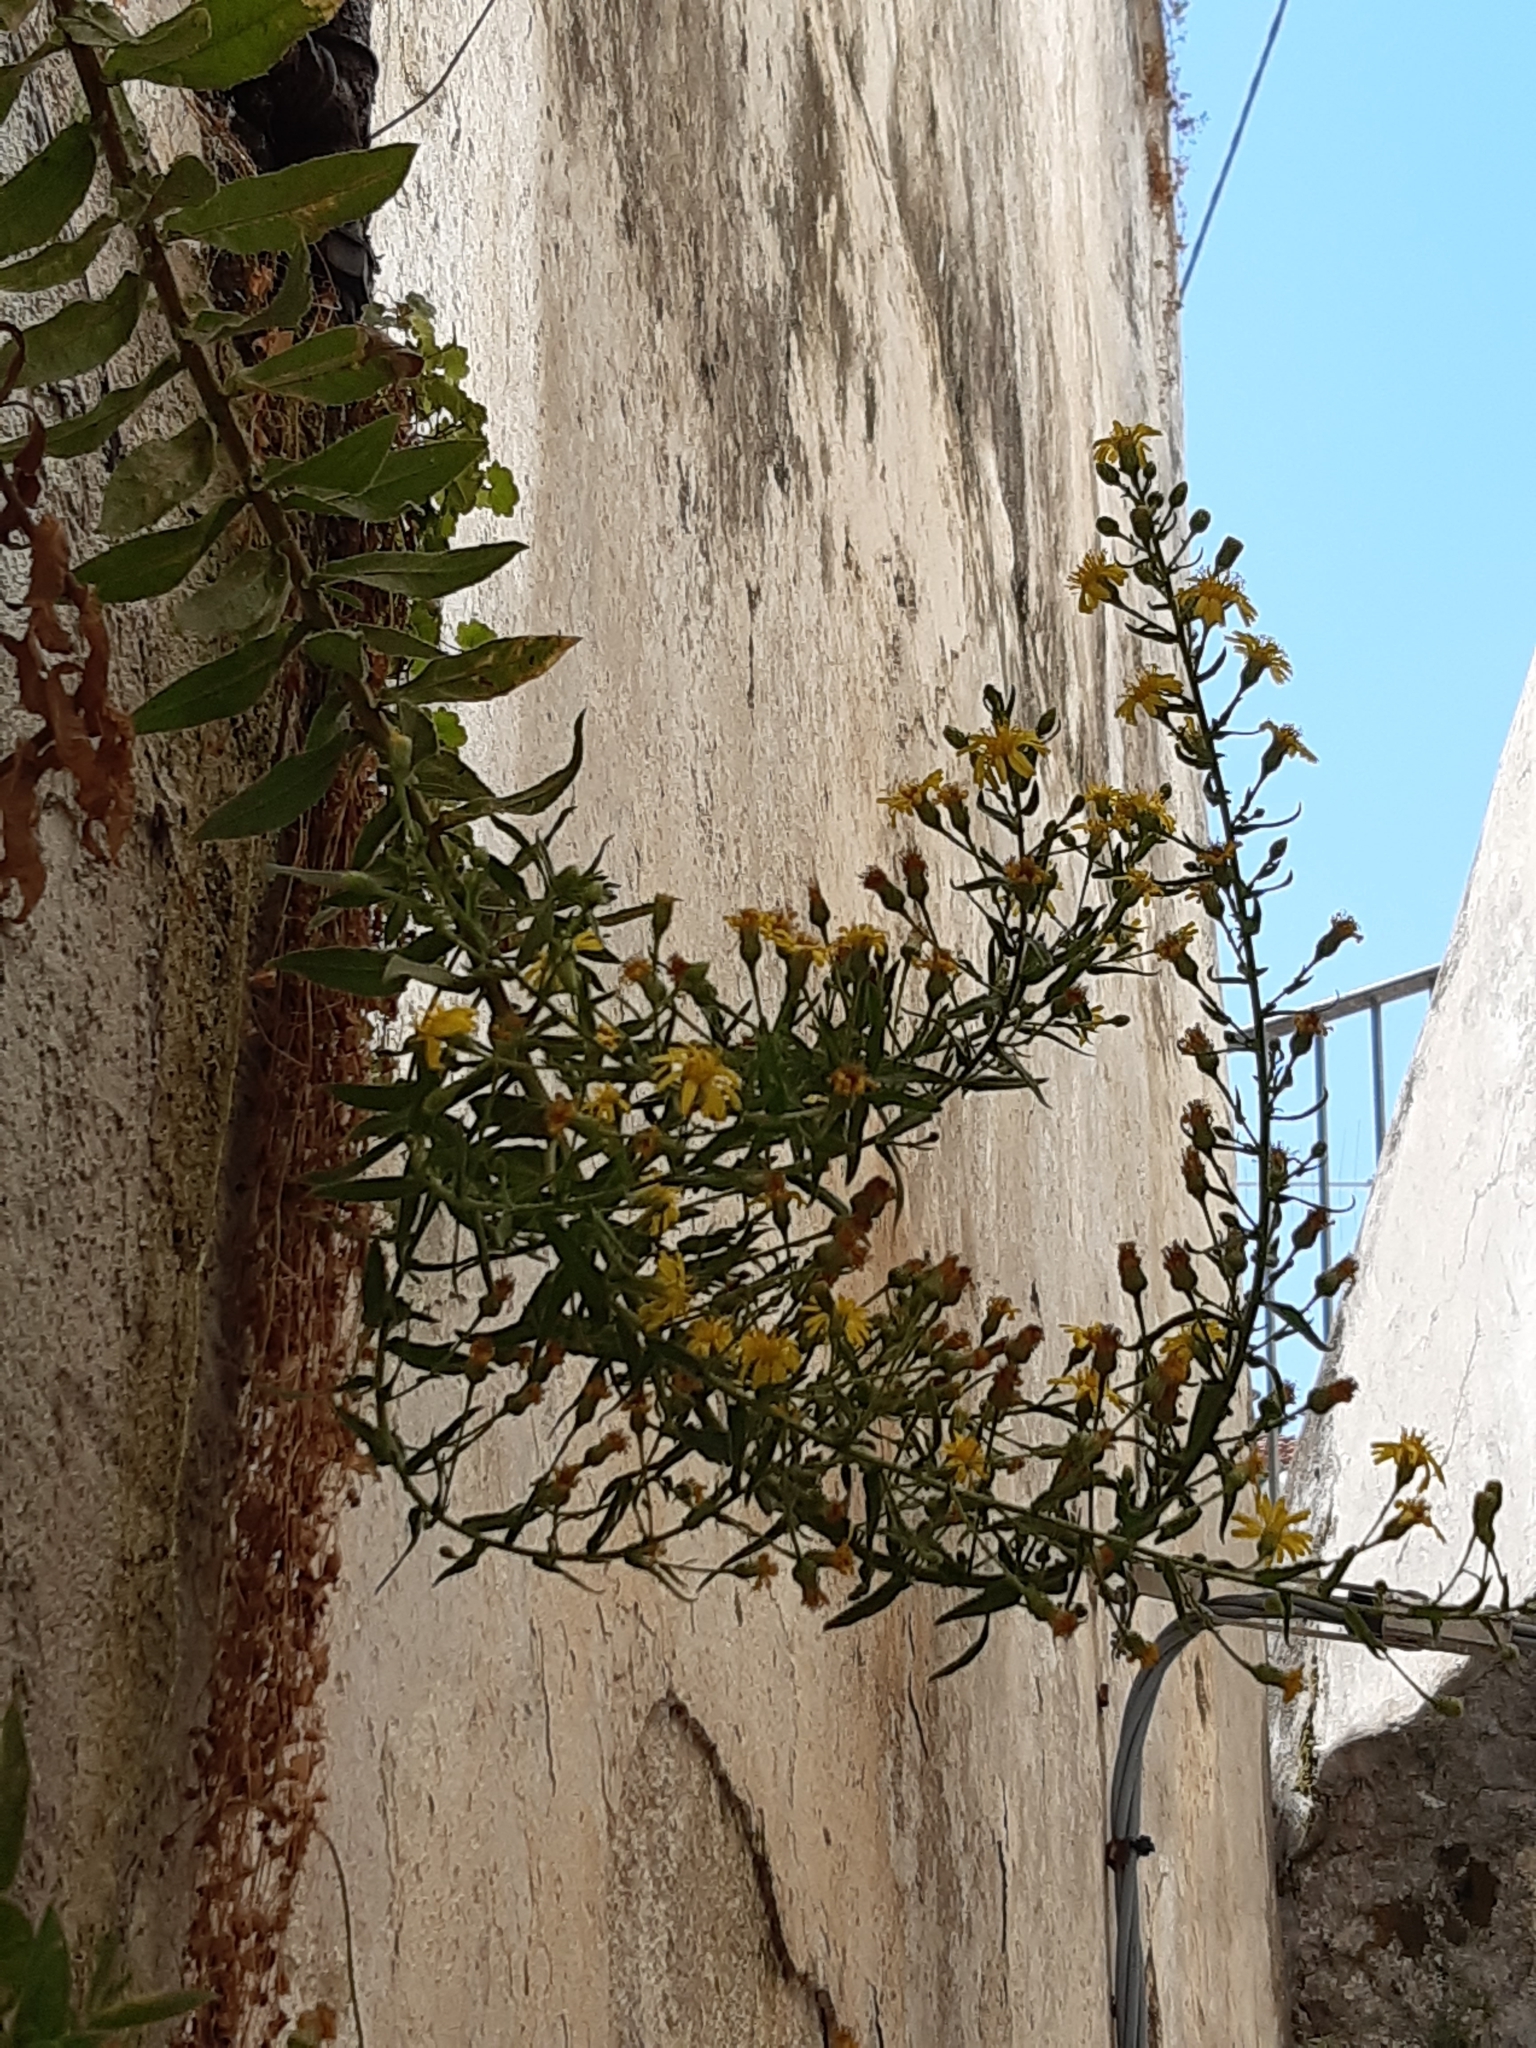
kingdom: Plantae
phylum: Tracheophyta
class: Magnoliopsida
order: Asterales
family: Asteraceae
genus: Dittrichia
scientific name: Dittrichia viscosa
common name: Woody fleabane
